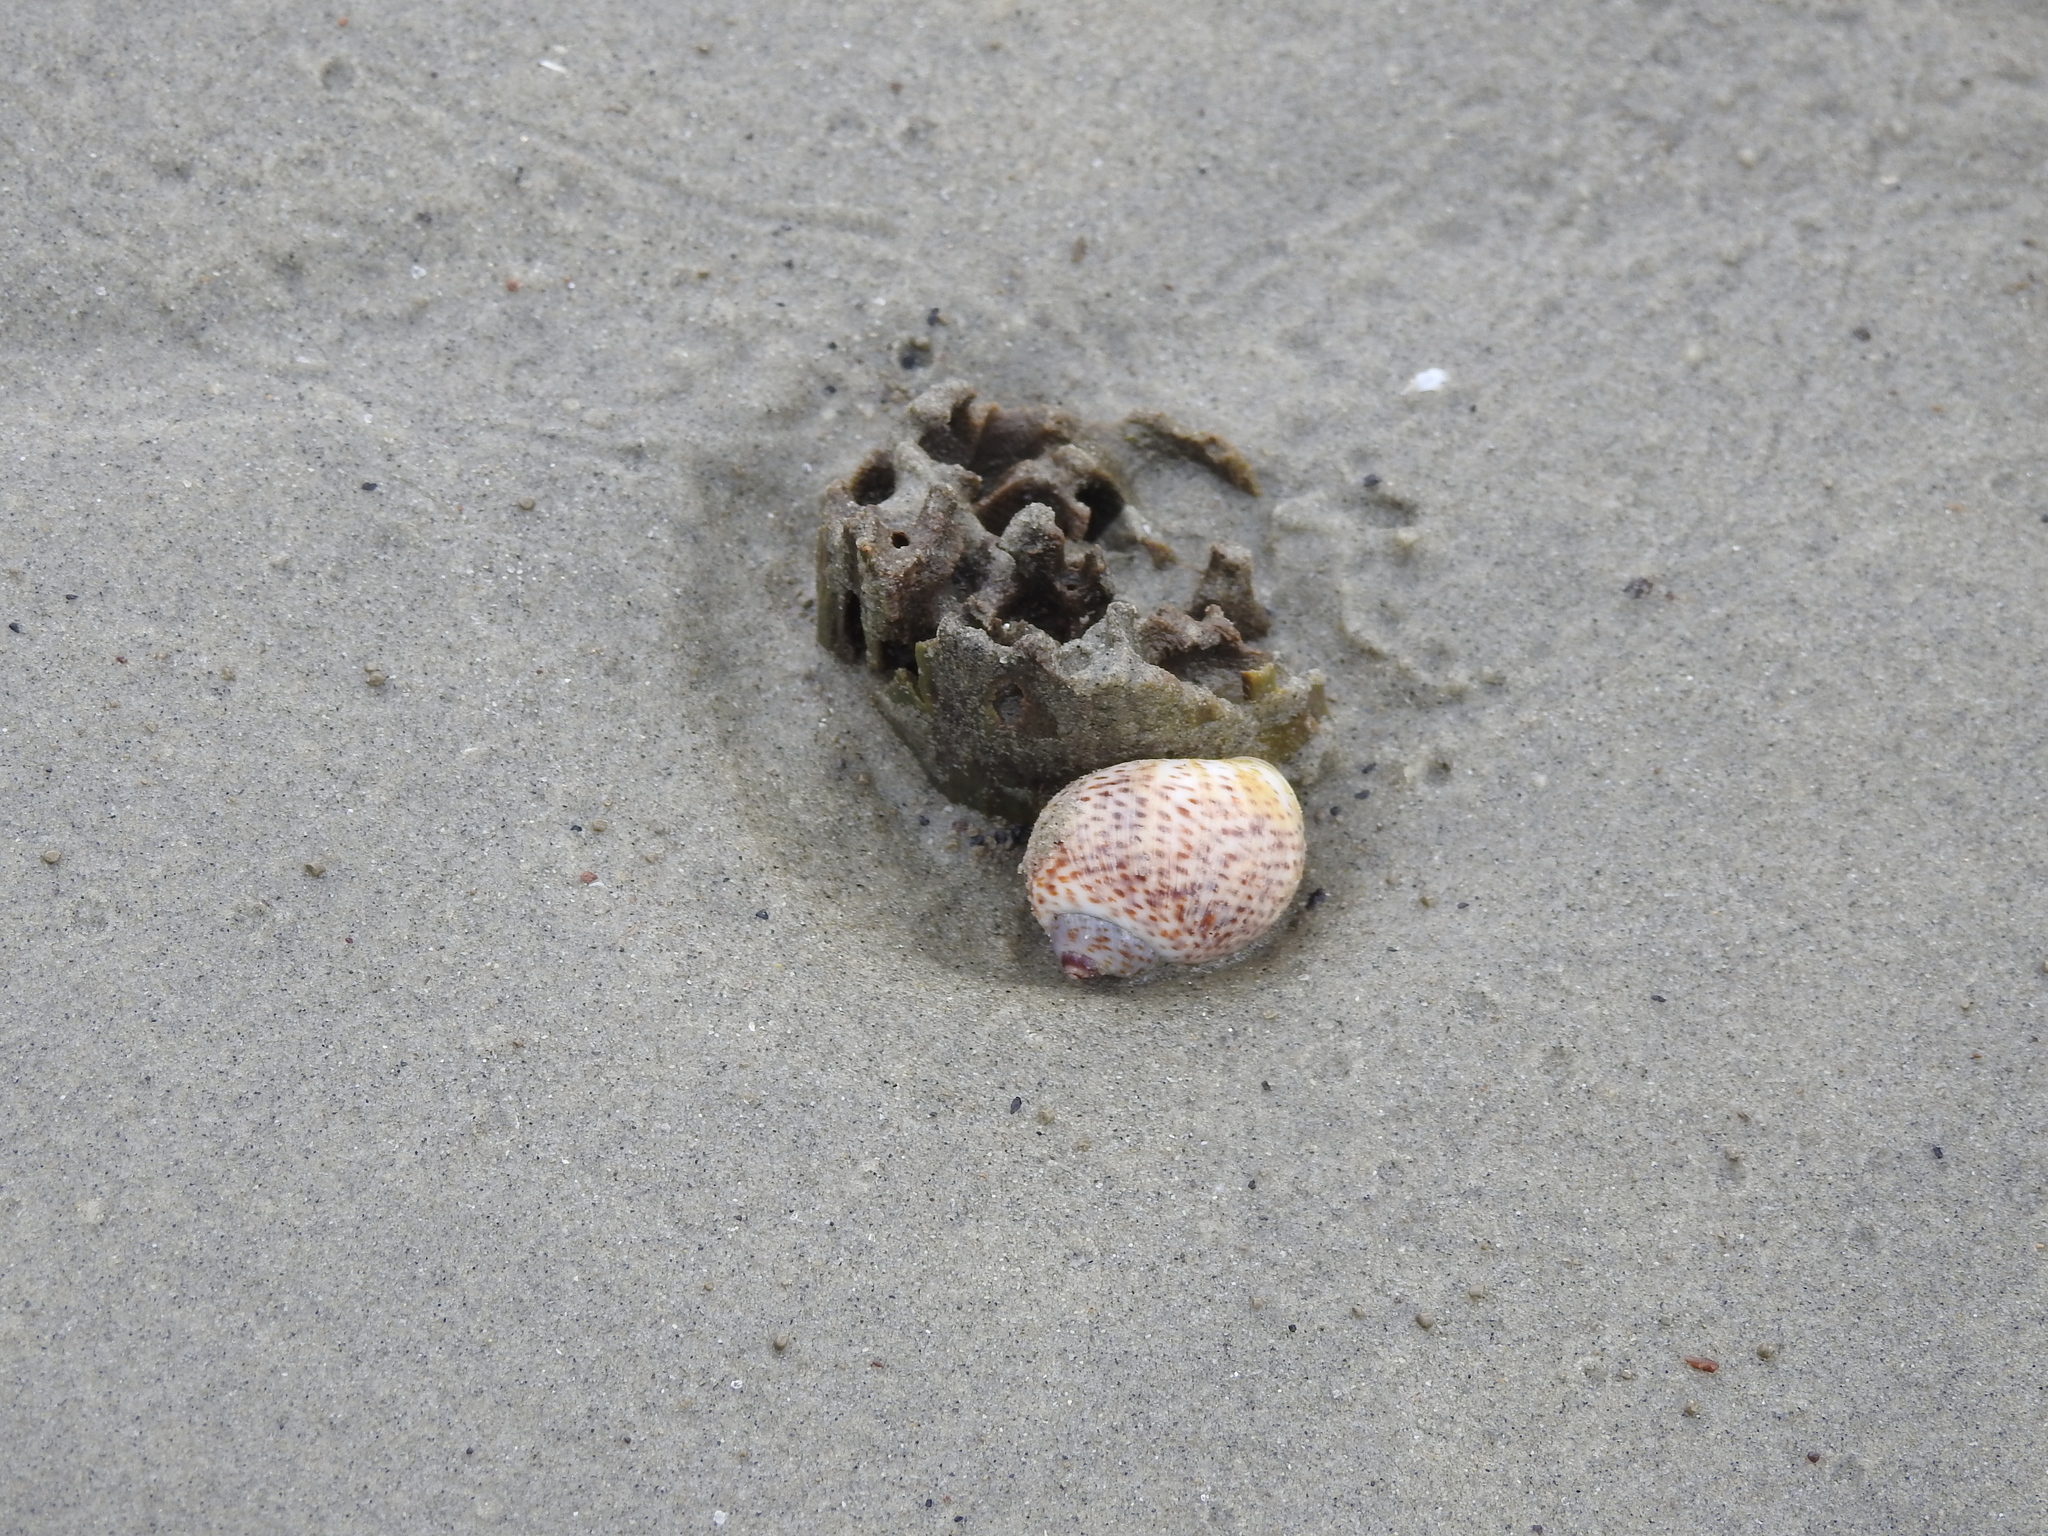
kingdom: Animalia
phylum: Mollusca
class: Gastropoda
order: Littorinimorpha
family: Naticidae
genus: Paratectonatica
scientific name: Paratectonatica tigrina
